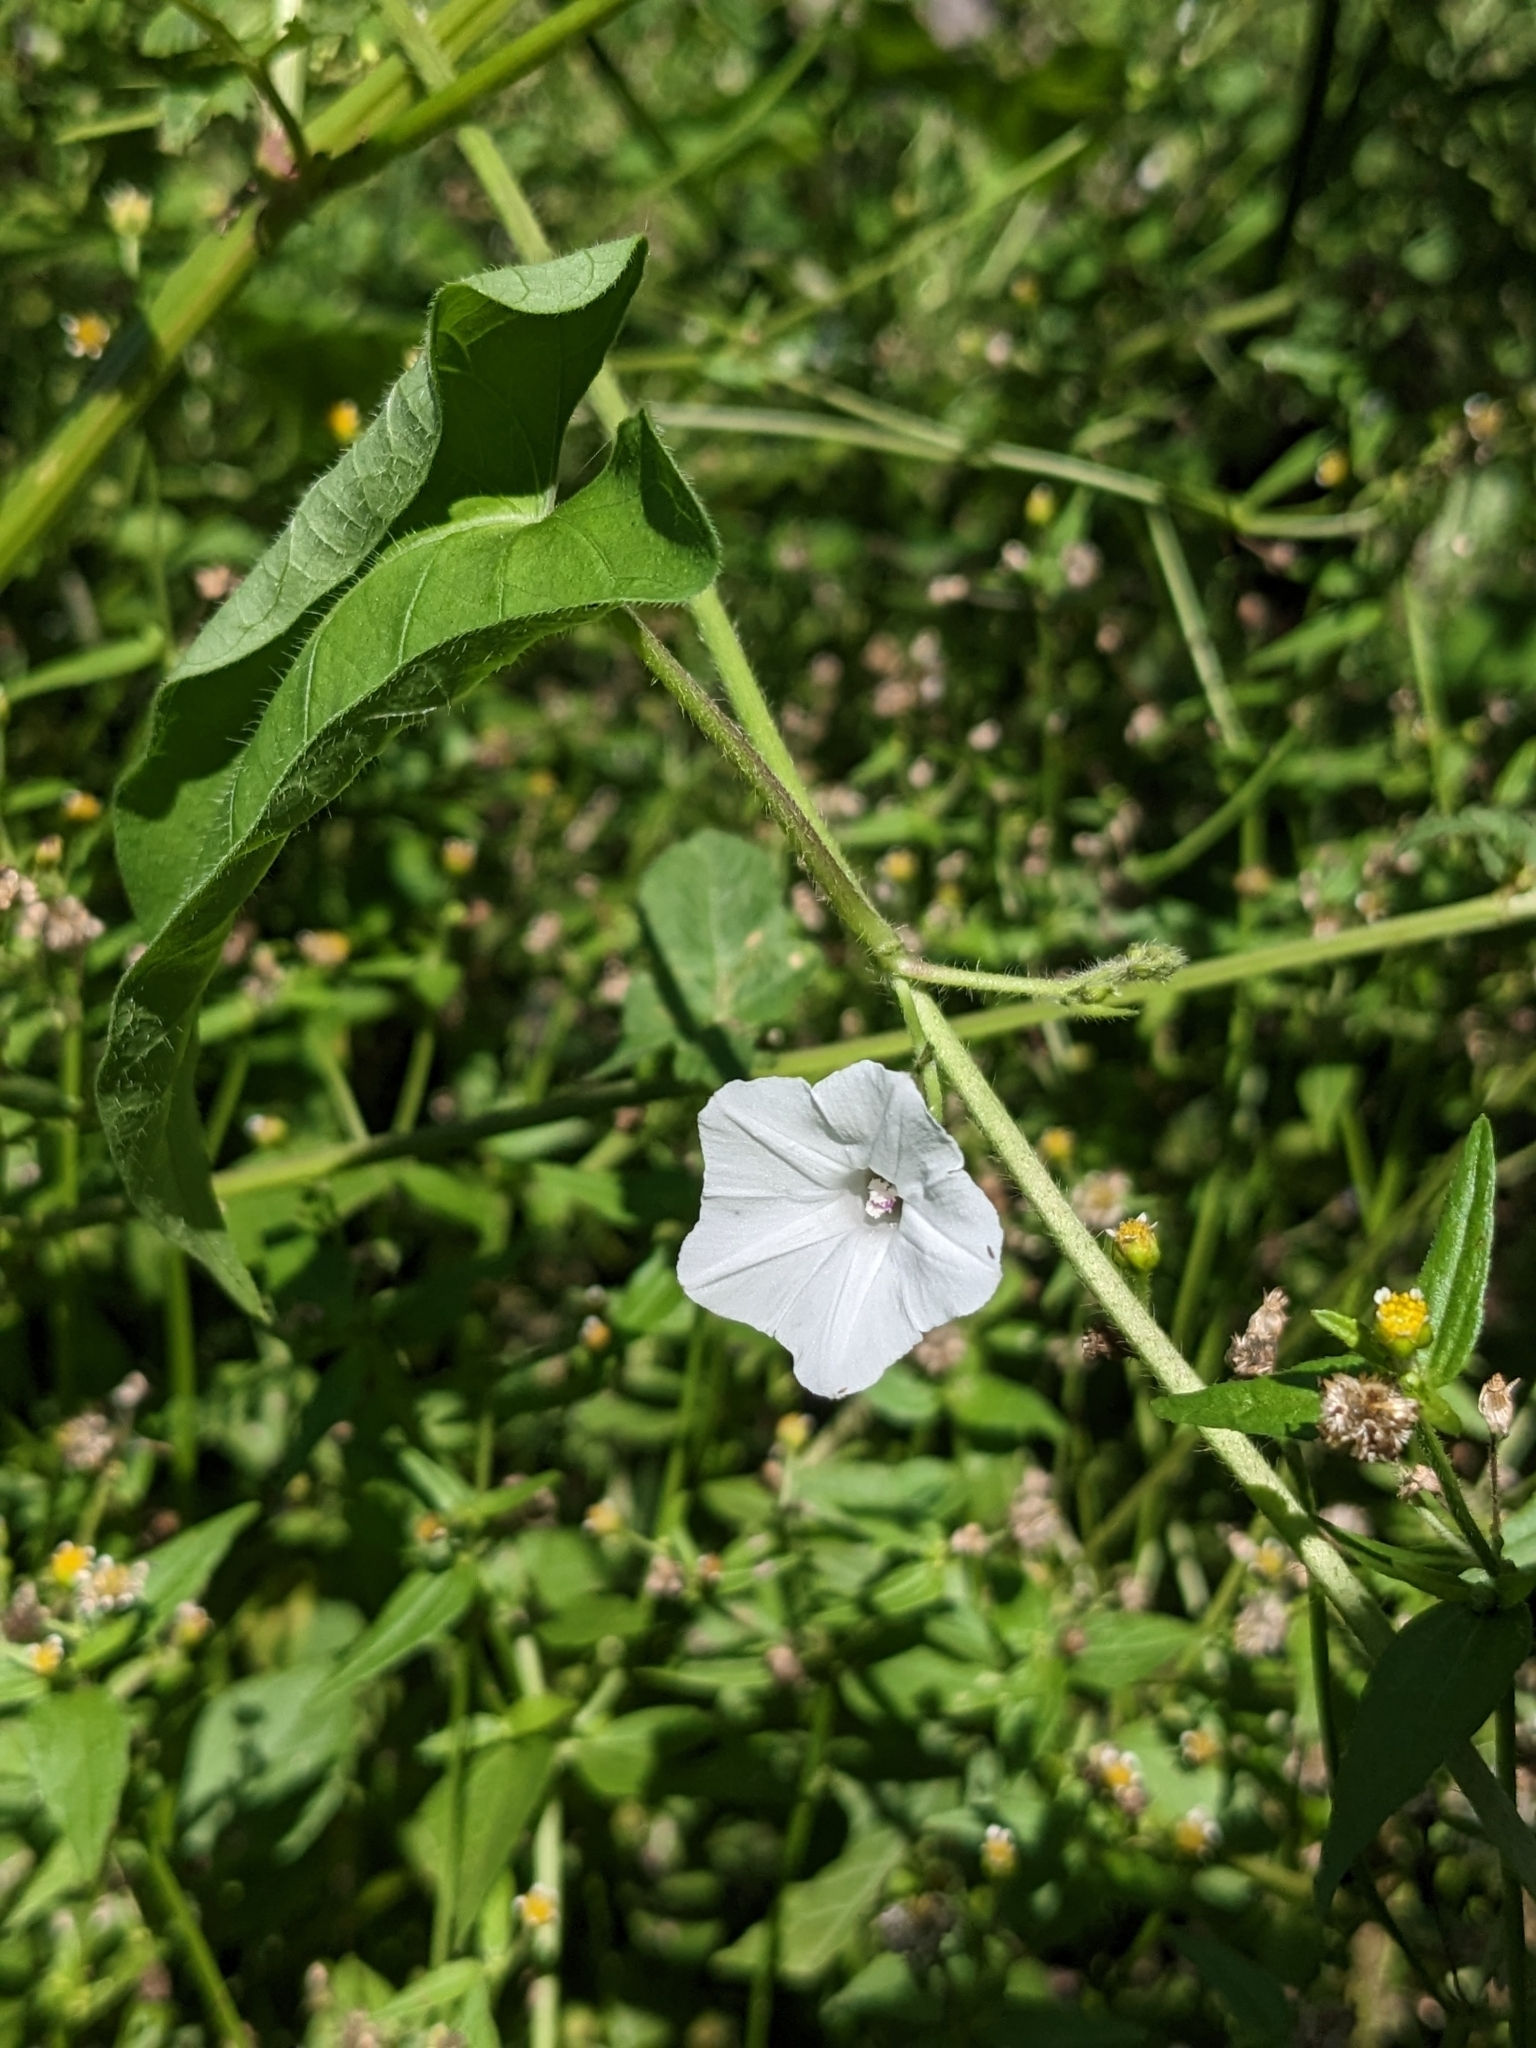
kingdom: Plantae
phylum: Tracheophyta
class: Magnoliopsida
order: Solanales
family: Convolvulaceae
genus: Ipomoea
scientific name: Ipomoea biflora
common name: Bellvine
